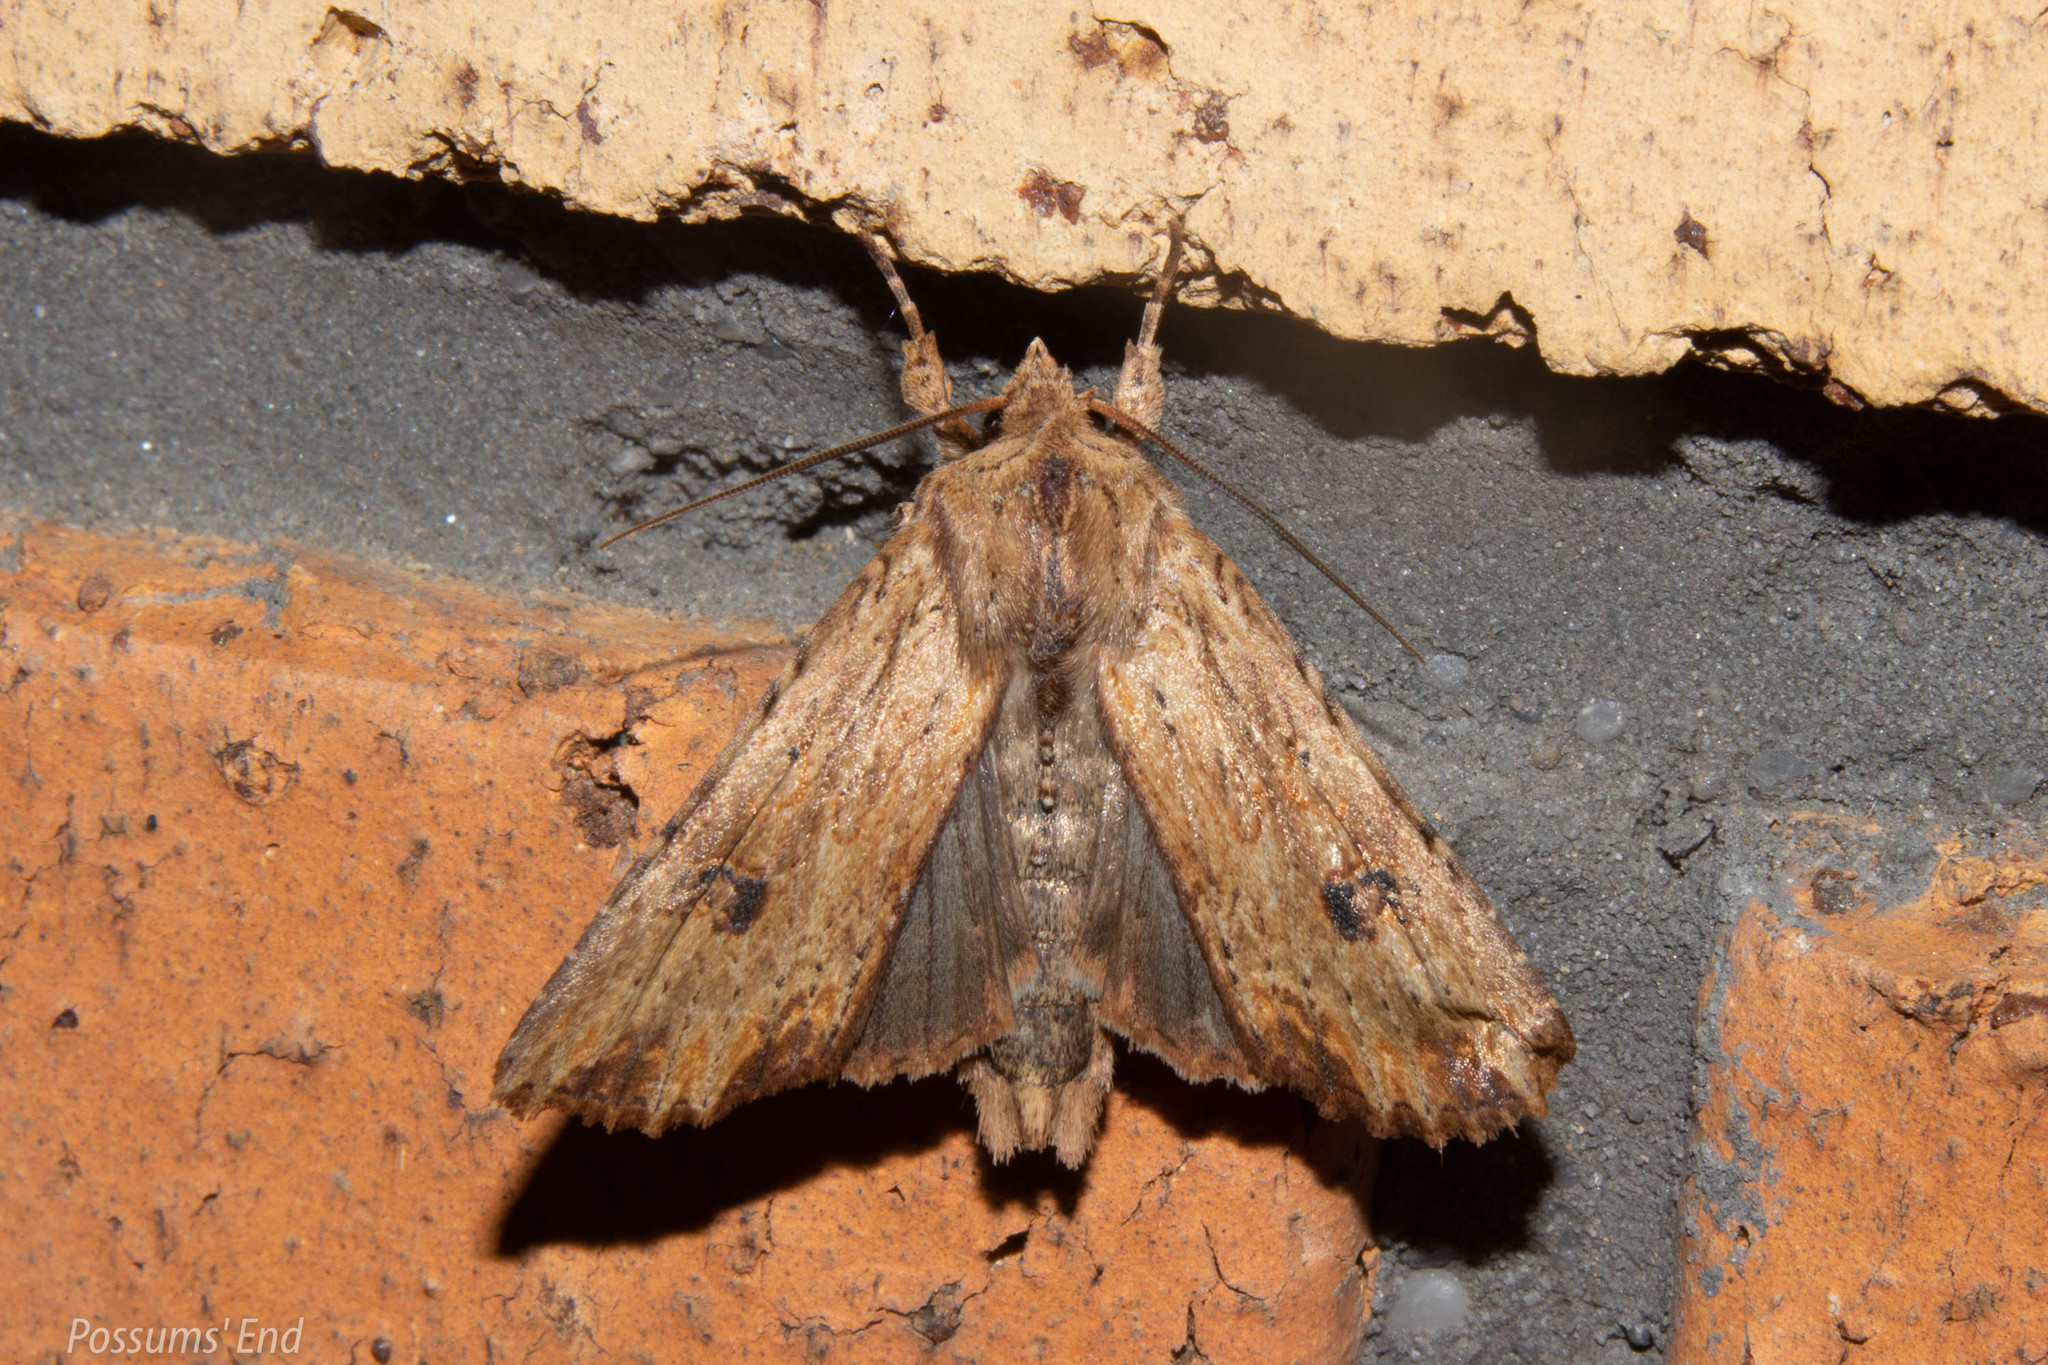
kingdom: Animalia
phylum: Arthropoda
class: Insecta
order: Lepidoptera
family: Noctuidae
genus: Ichneutica
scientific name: Ichneutica
